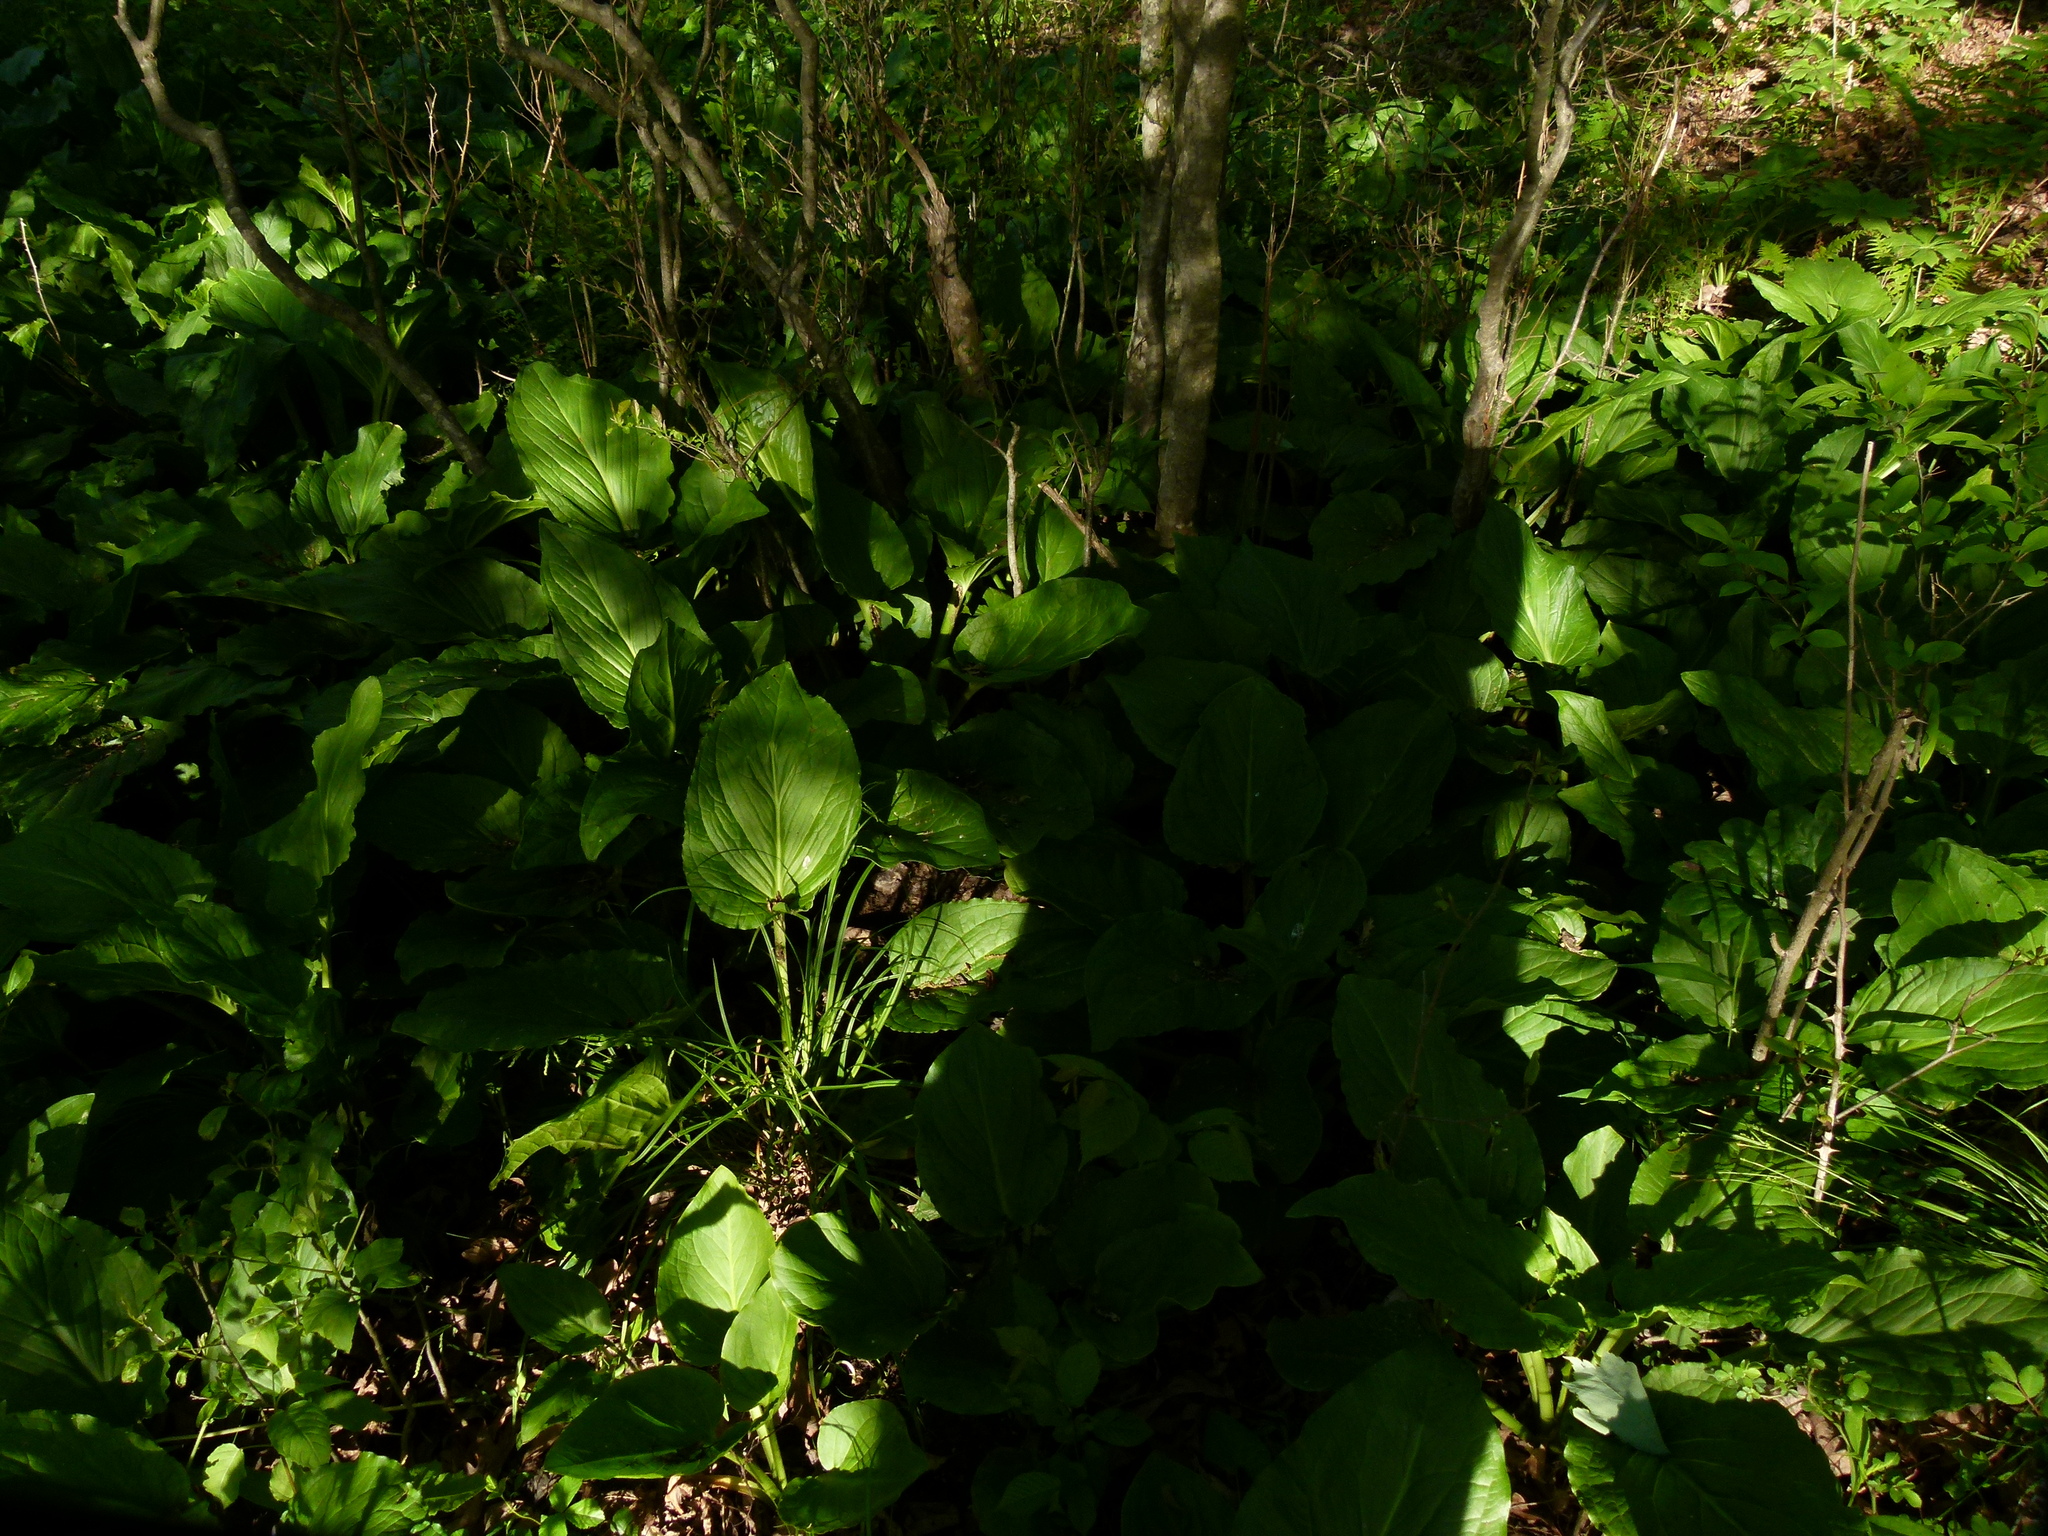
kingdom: Plantae
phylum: Tracheophyta
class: Liliopsida
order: Alismatales
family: Araceae
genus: Symplocarpus
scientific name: Symplocarpus foetidus
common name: Eastern skunk cabbage
